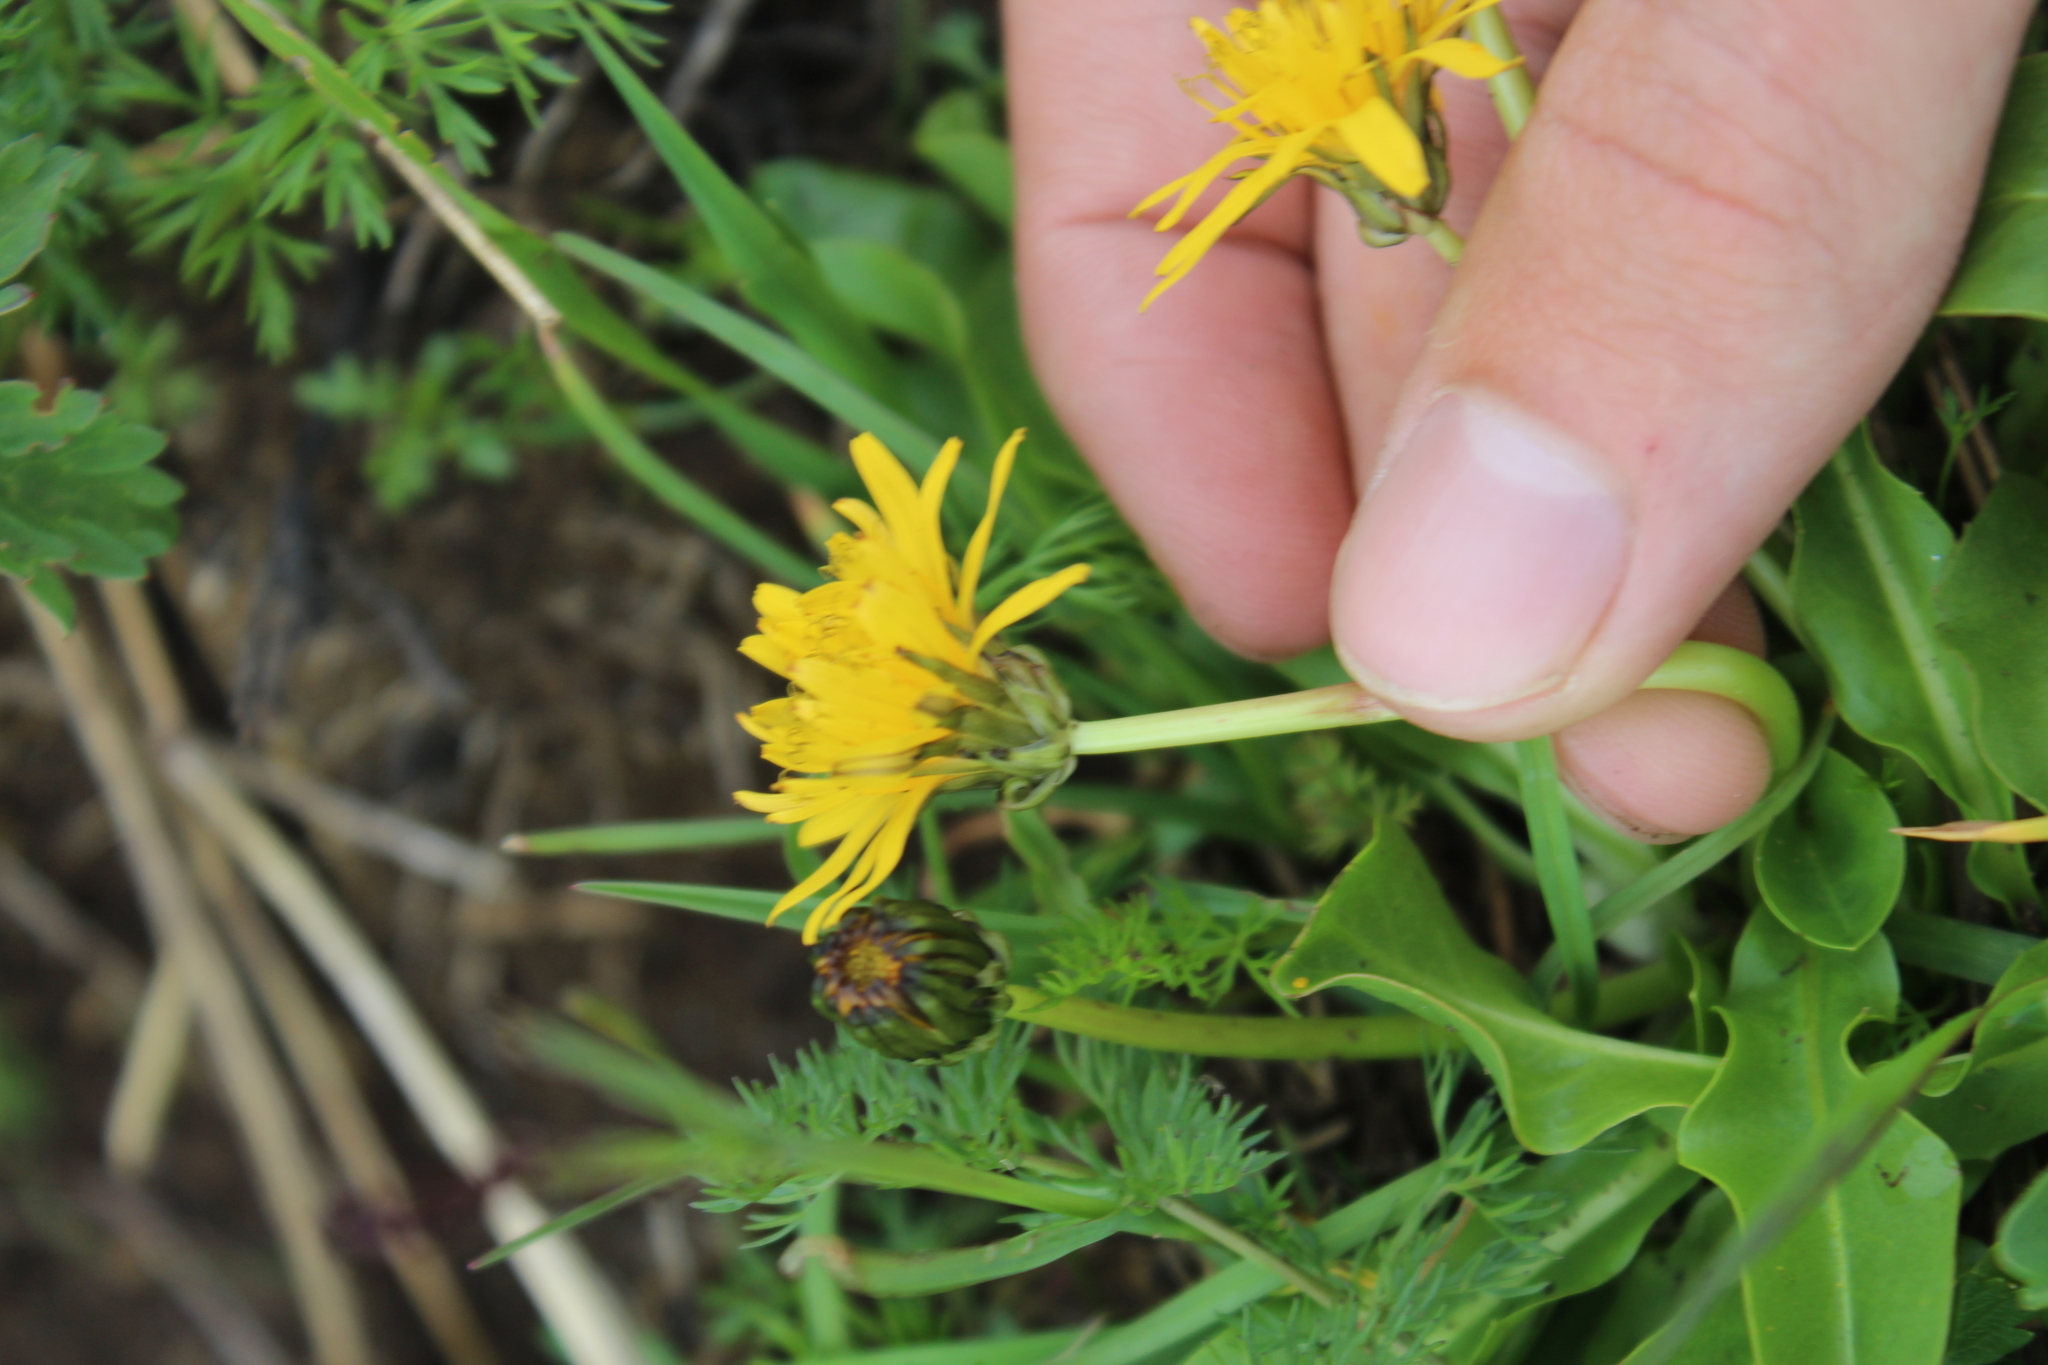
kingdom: Plantae
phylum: Tracheophyta
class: Magnoliopsida
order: Asterales
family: Asteraceae
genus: Taraxacum
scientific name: Taraxacum stevenii
